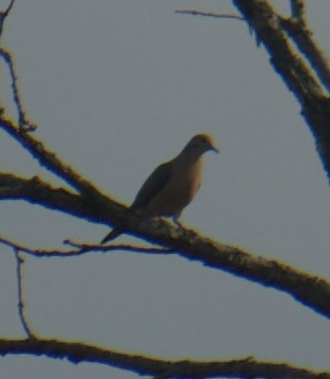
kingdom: Animalia
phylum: Chordata
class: Aves
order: Columbiformes
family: Columbidae
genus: Zenaida
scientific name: Zenaida macroura
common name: Mourning dove
